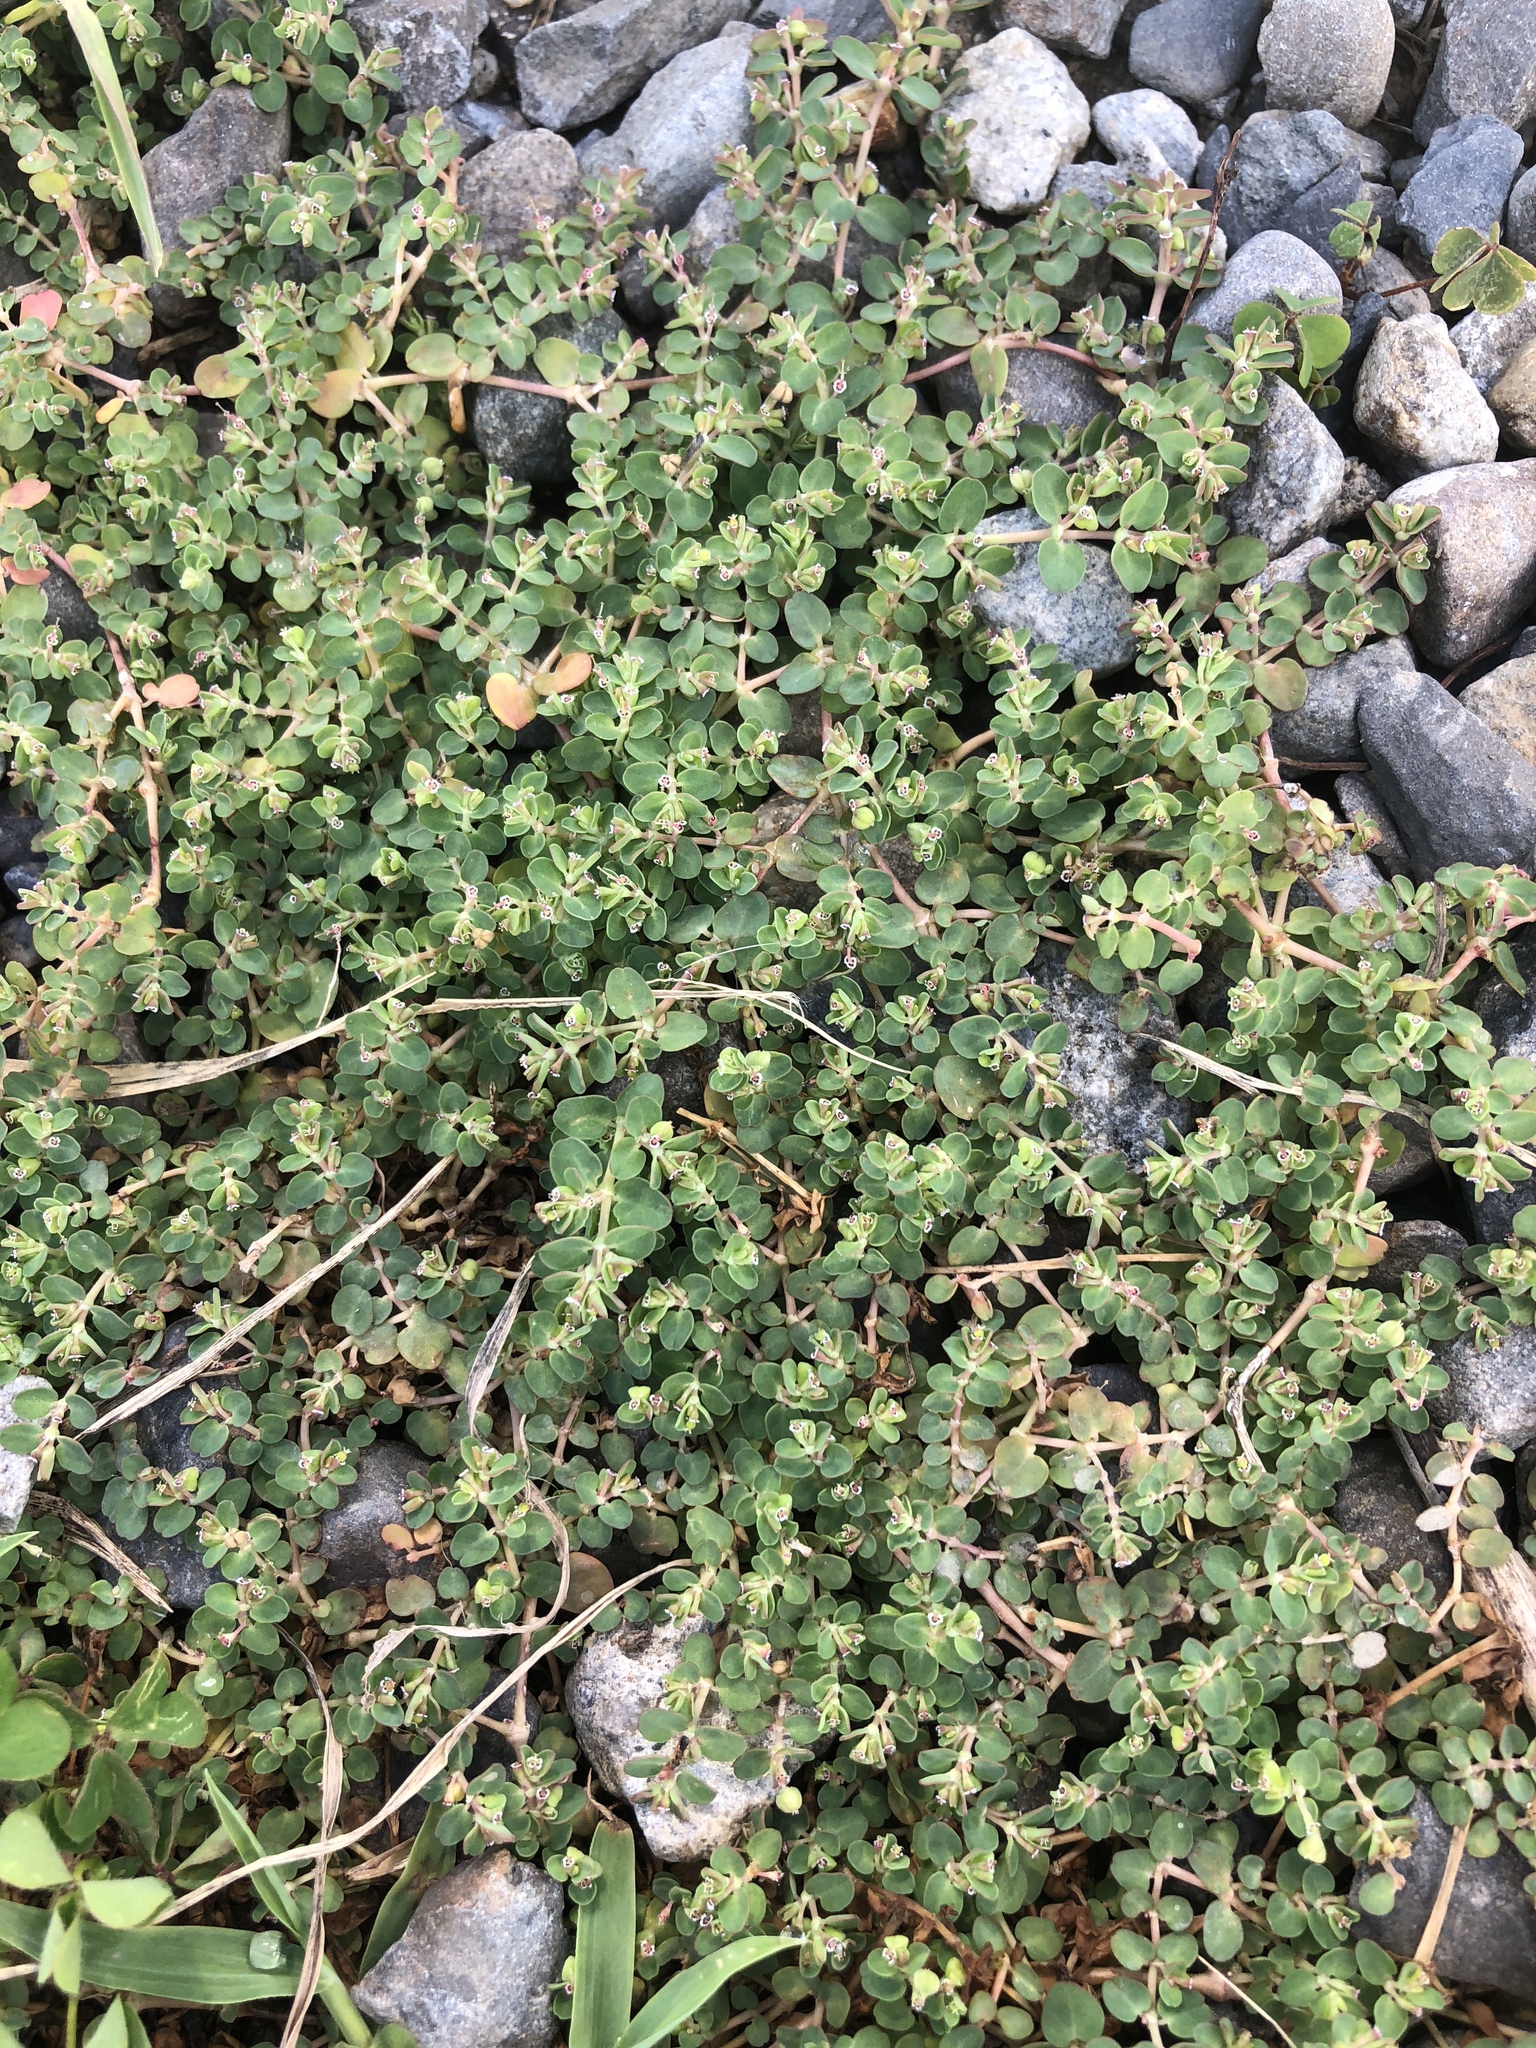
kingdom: Plantae
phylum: Tracheophyta
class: Magnoliopsida
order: Malpighiales
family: Euphorbiaceae
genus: Euphorbia
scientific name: Euphorbia serpens
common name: Matted sandmat
